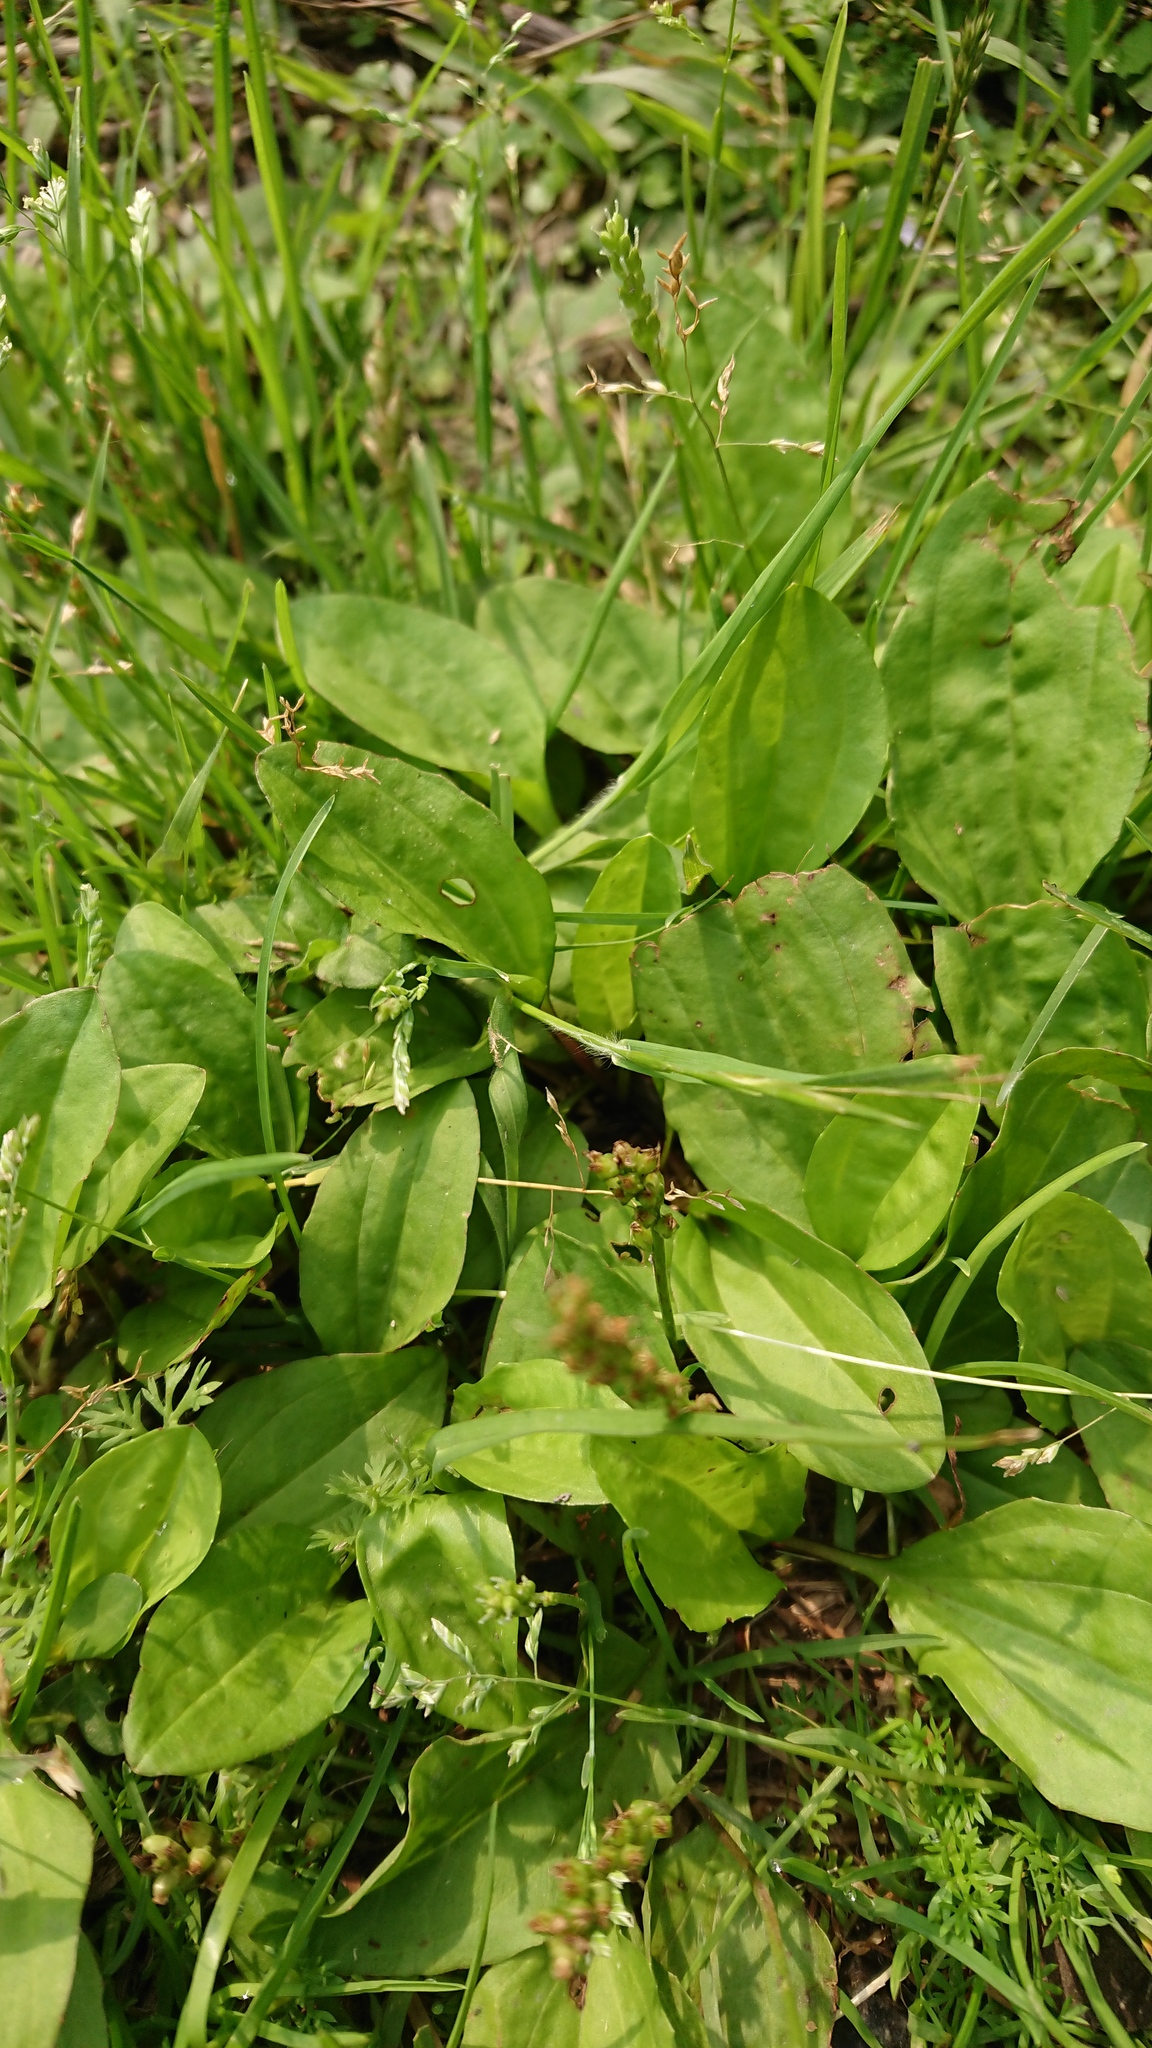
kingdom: Plantae
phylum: Tracheophyta
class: Magnoliopsida
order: Lamiales
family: Plantaginaceae
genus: Plantago
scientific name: Plantago asiatica
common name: Psyllium
